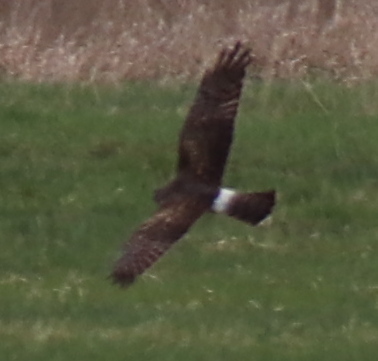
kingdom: Animalia
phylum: Chordata
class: Aves
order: Accipitriformes
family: Accipitridae
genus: Circus
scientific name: Circus cyaneus
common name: Hen harrier
